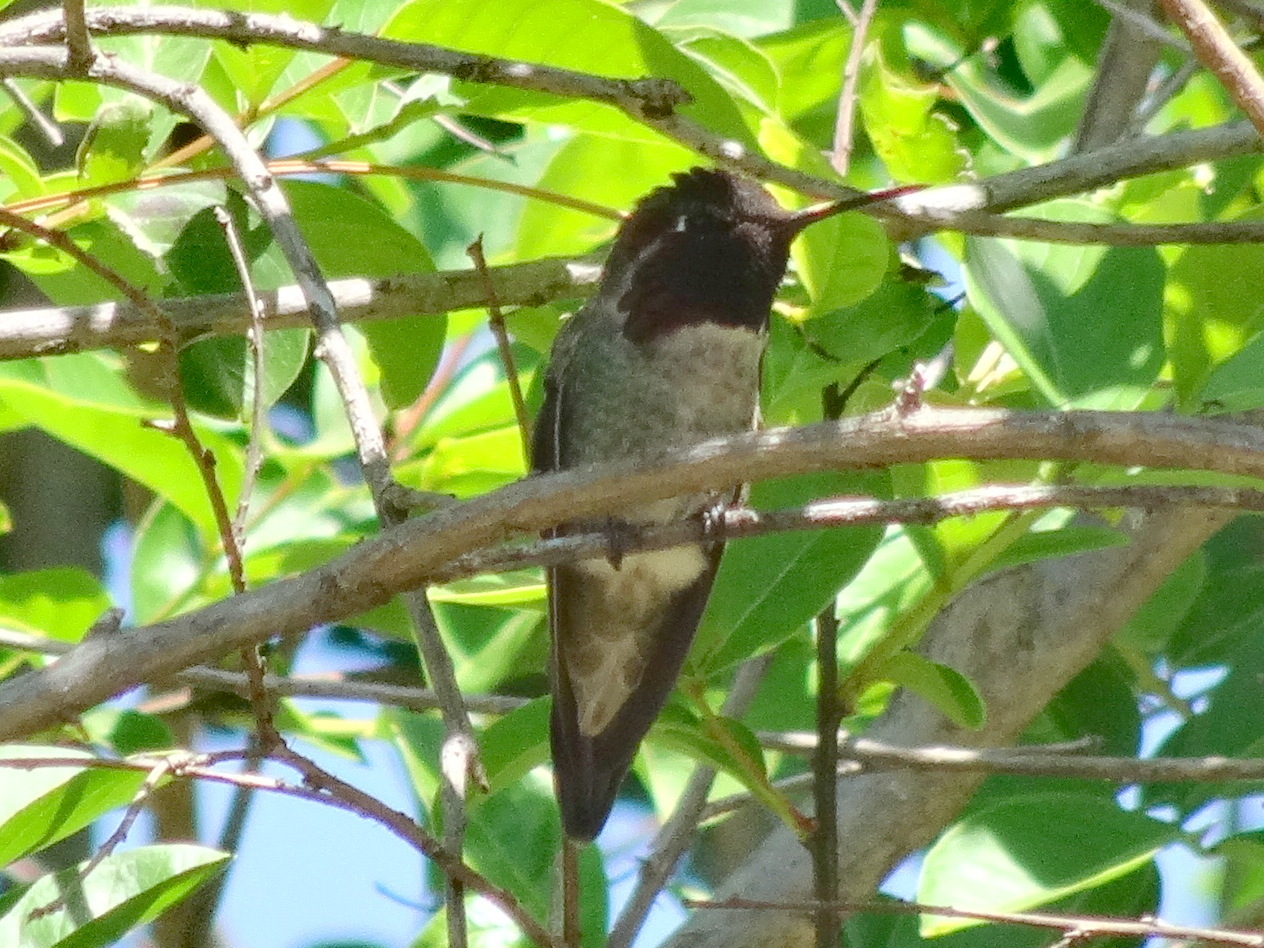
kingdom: Animalia
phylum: Chordata
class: Aves
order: Apodiformes
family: Trochilidae
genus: Calypte
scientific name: Calypte anna
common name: Anna's hummingbird
